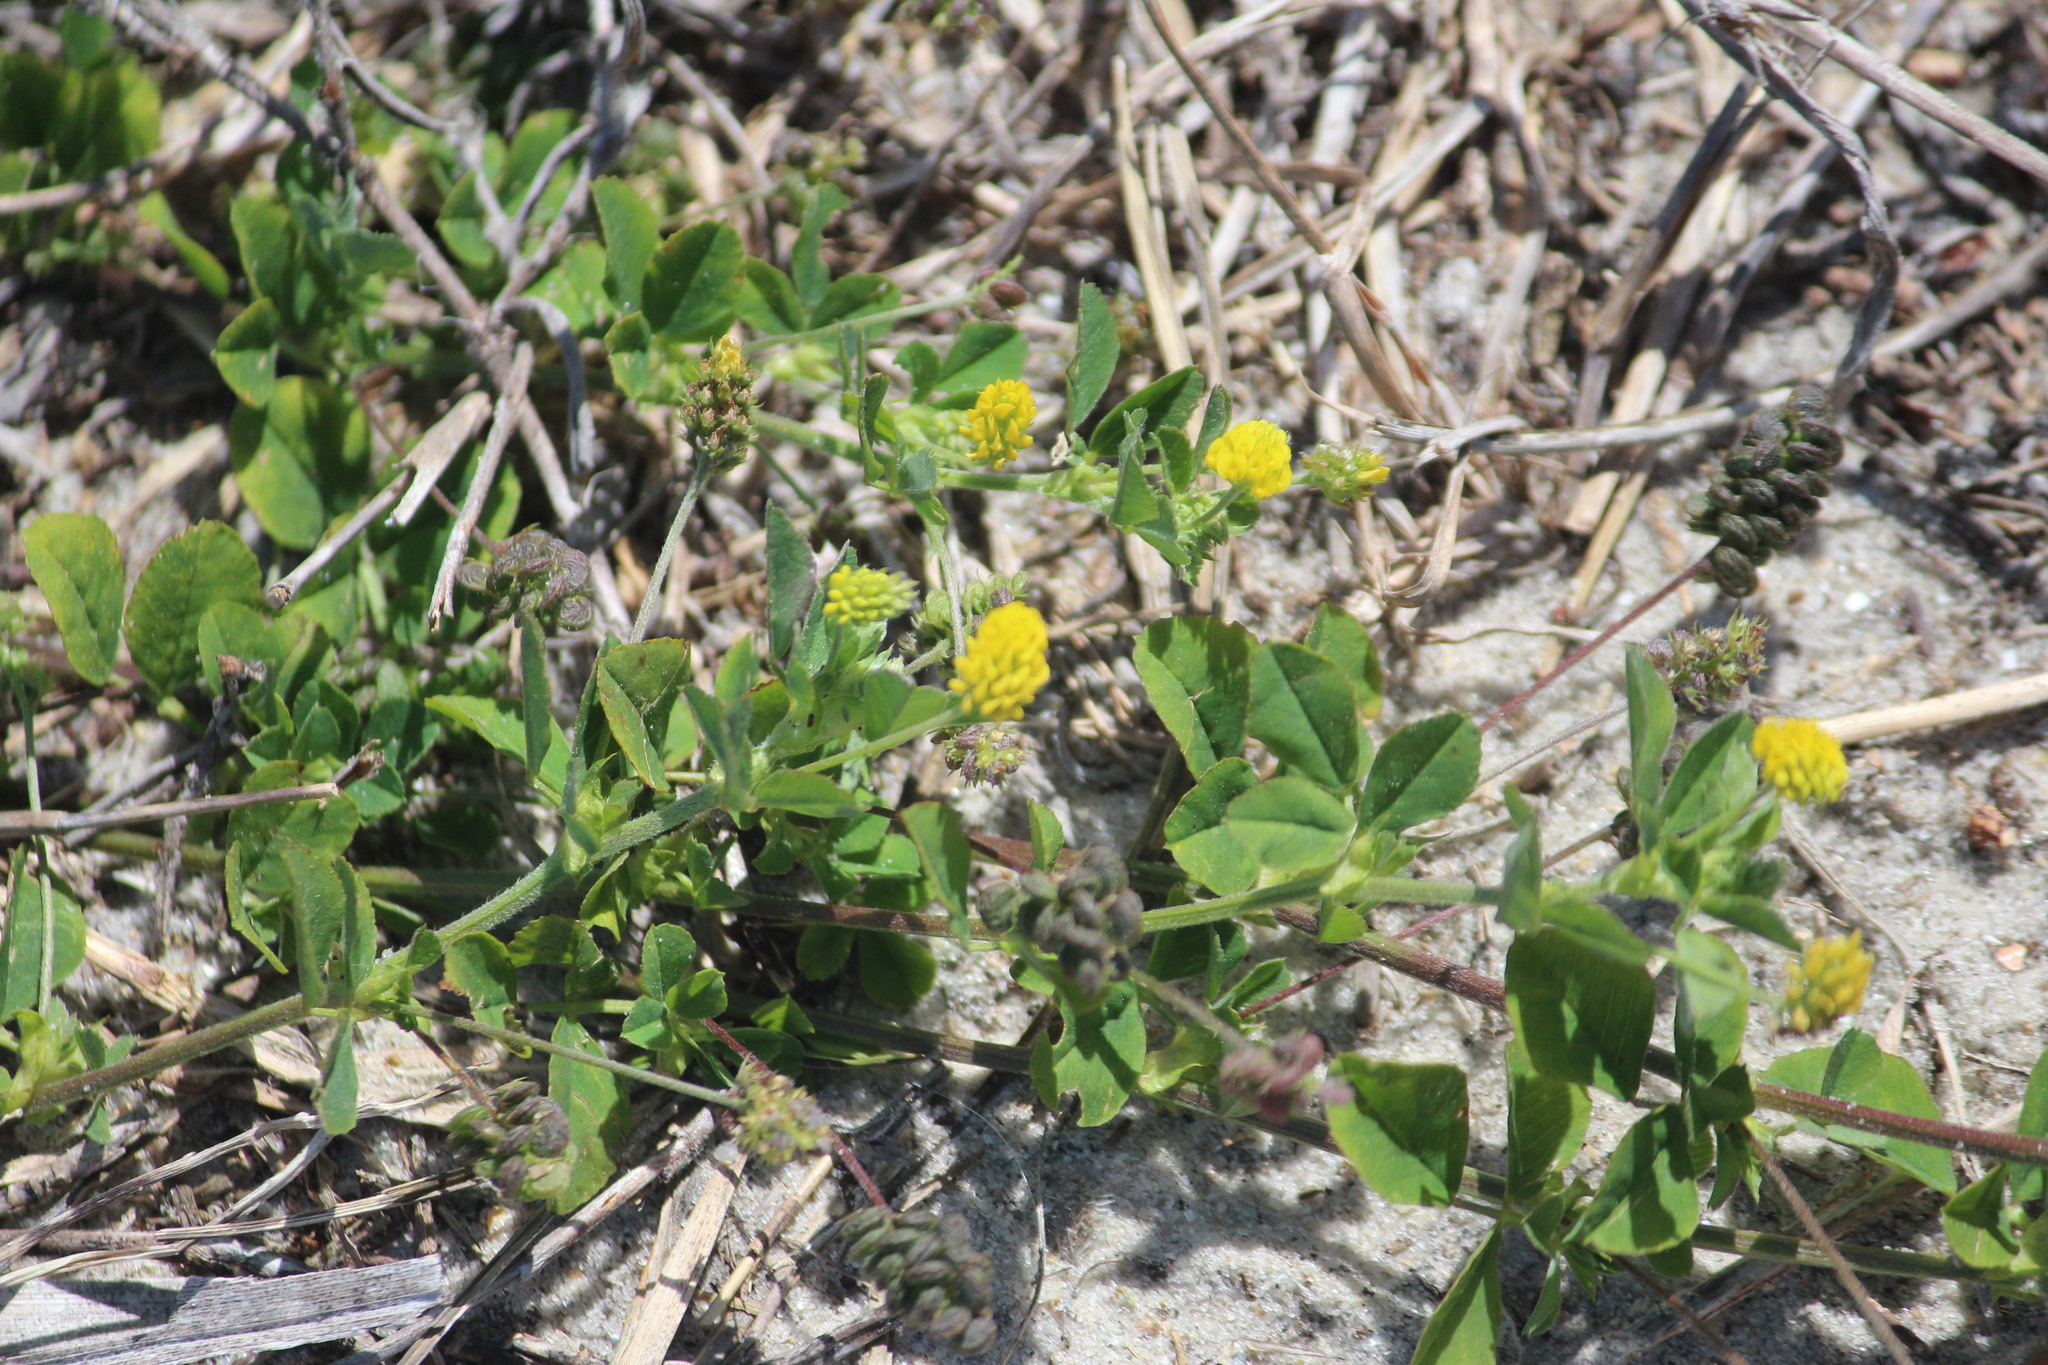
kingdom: Plantae
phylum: Tracheophyta
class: Magnoliopsida
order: Fabales
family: Fabaceae
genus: Medicago
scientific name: Medicago lupulina
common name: Black medick
